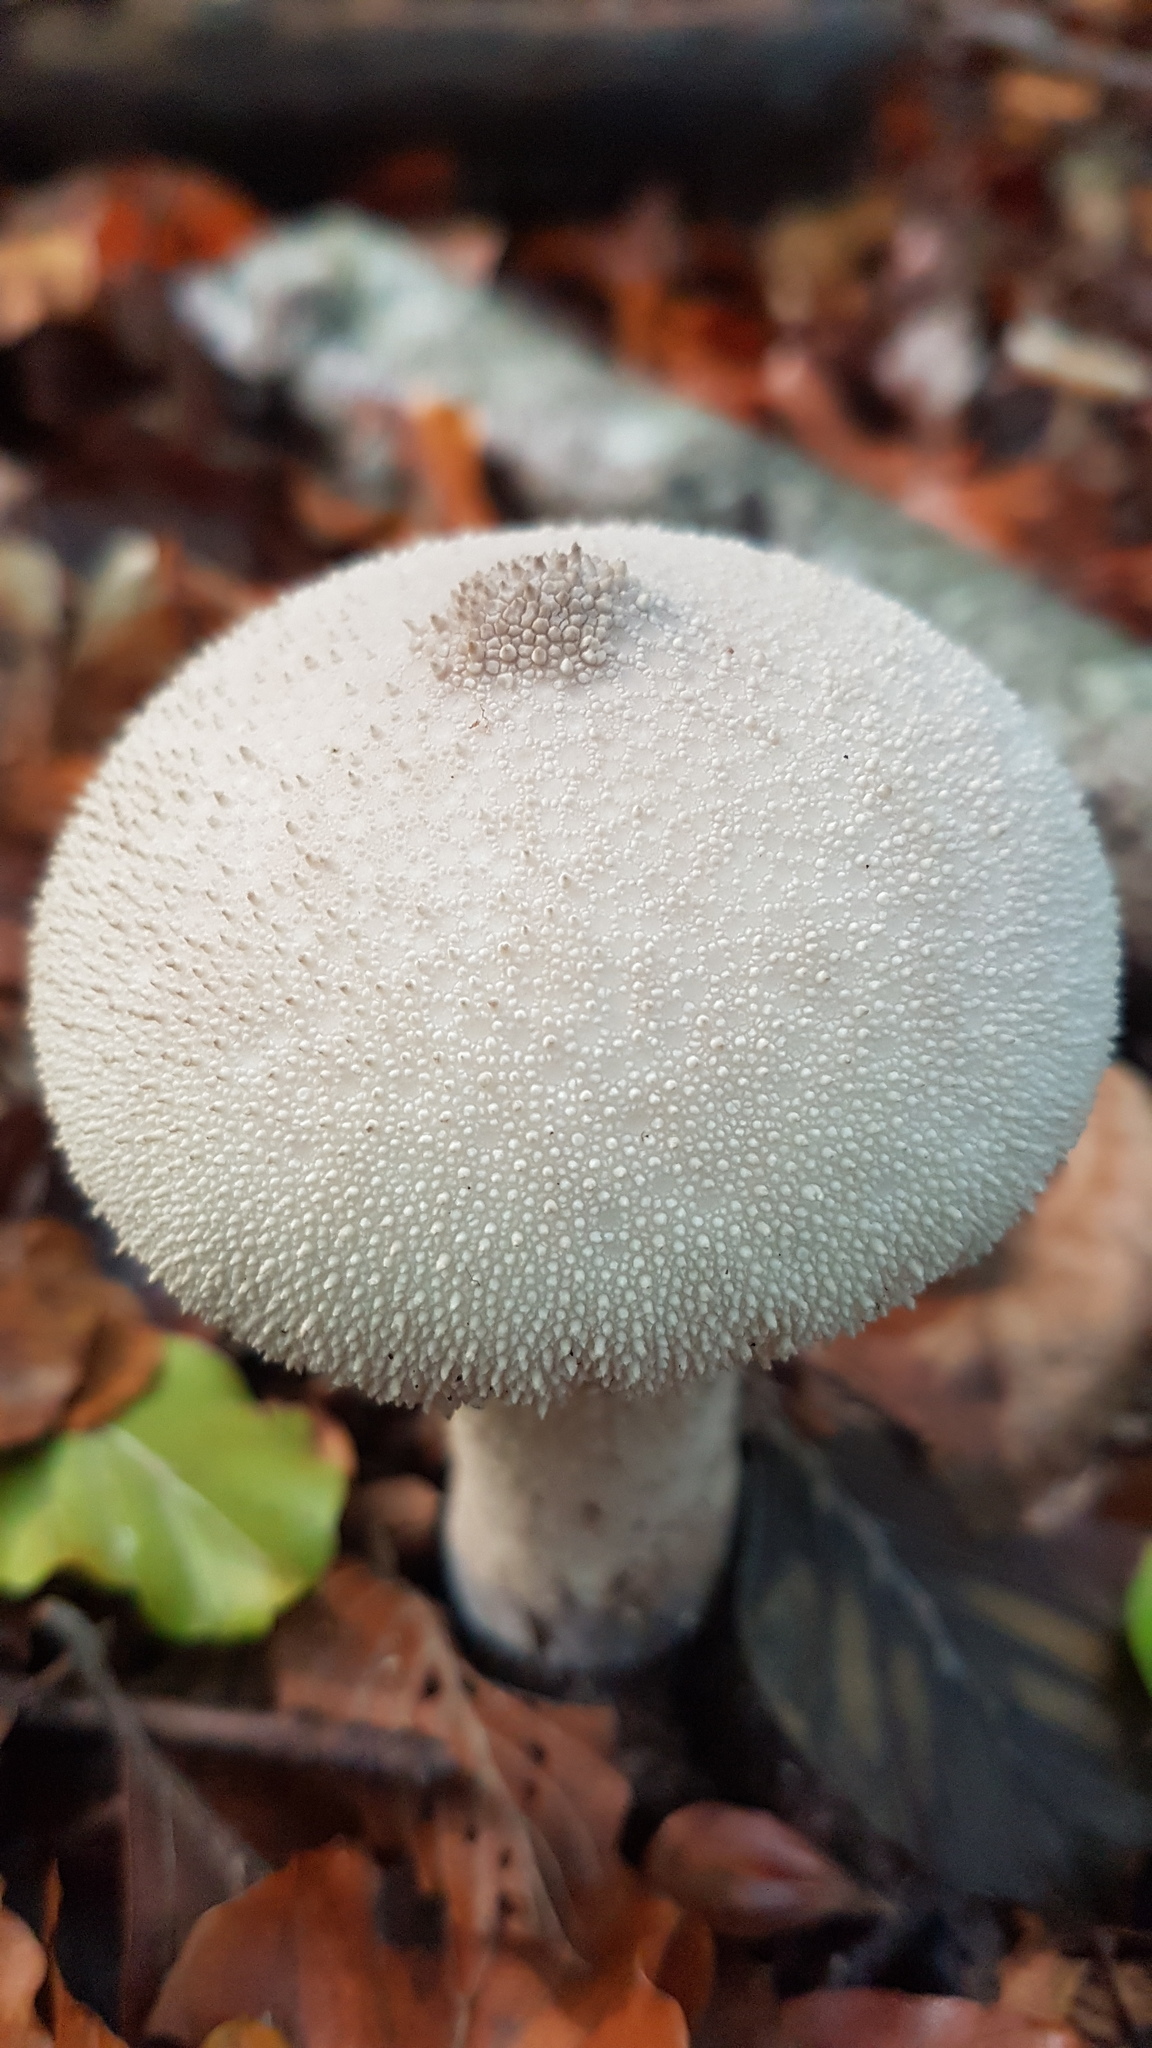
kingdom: Fungi
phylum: Basidiomycota
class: Agaricomycetes
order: Agaricales
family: Lycoperdaceae
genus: Lycoperdon
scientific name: Lycoperdon perlatum
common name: Common puffball
